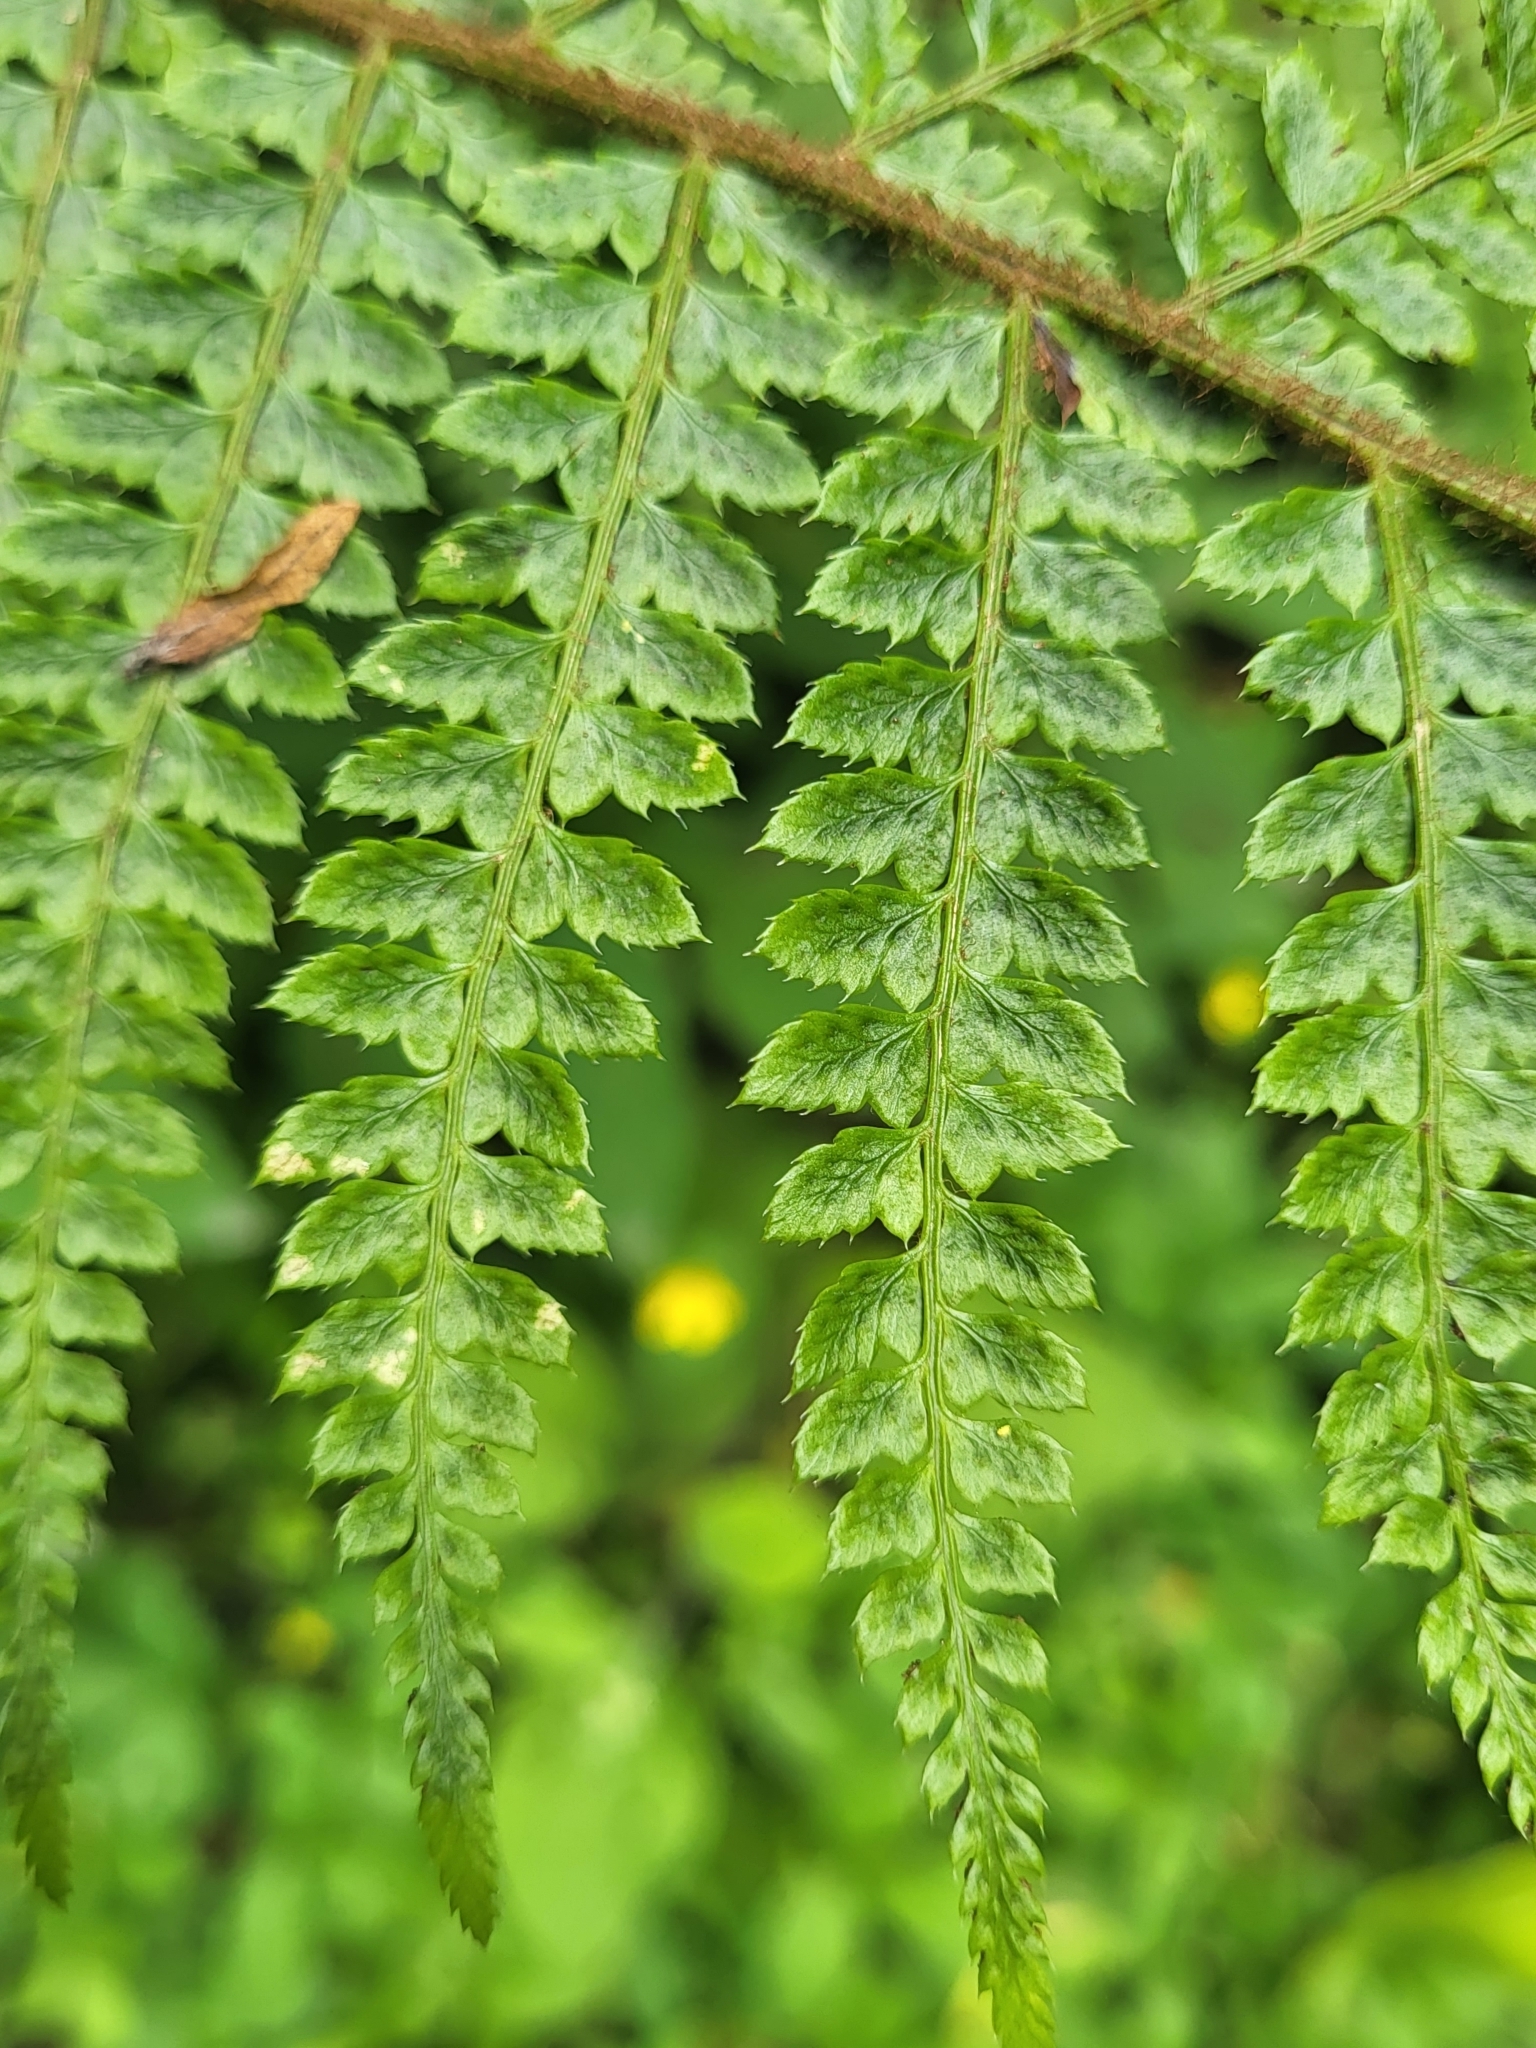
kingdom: Plantae
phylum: Tracheophyta
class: Polypodiopsida
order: Polypodiales
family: Dryopteridaceae
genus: Polystichum
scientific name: Polystichum setiferum
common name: Soft shield-fern
